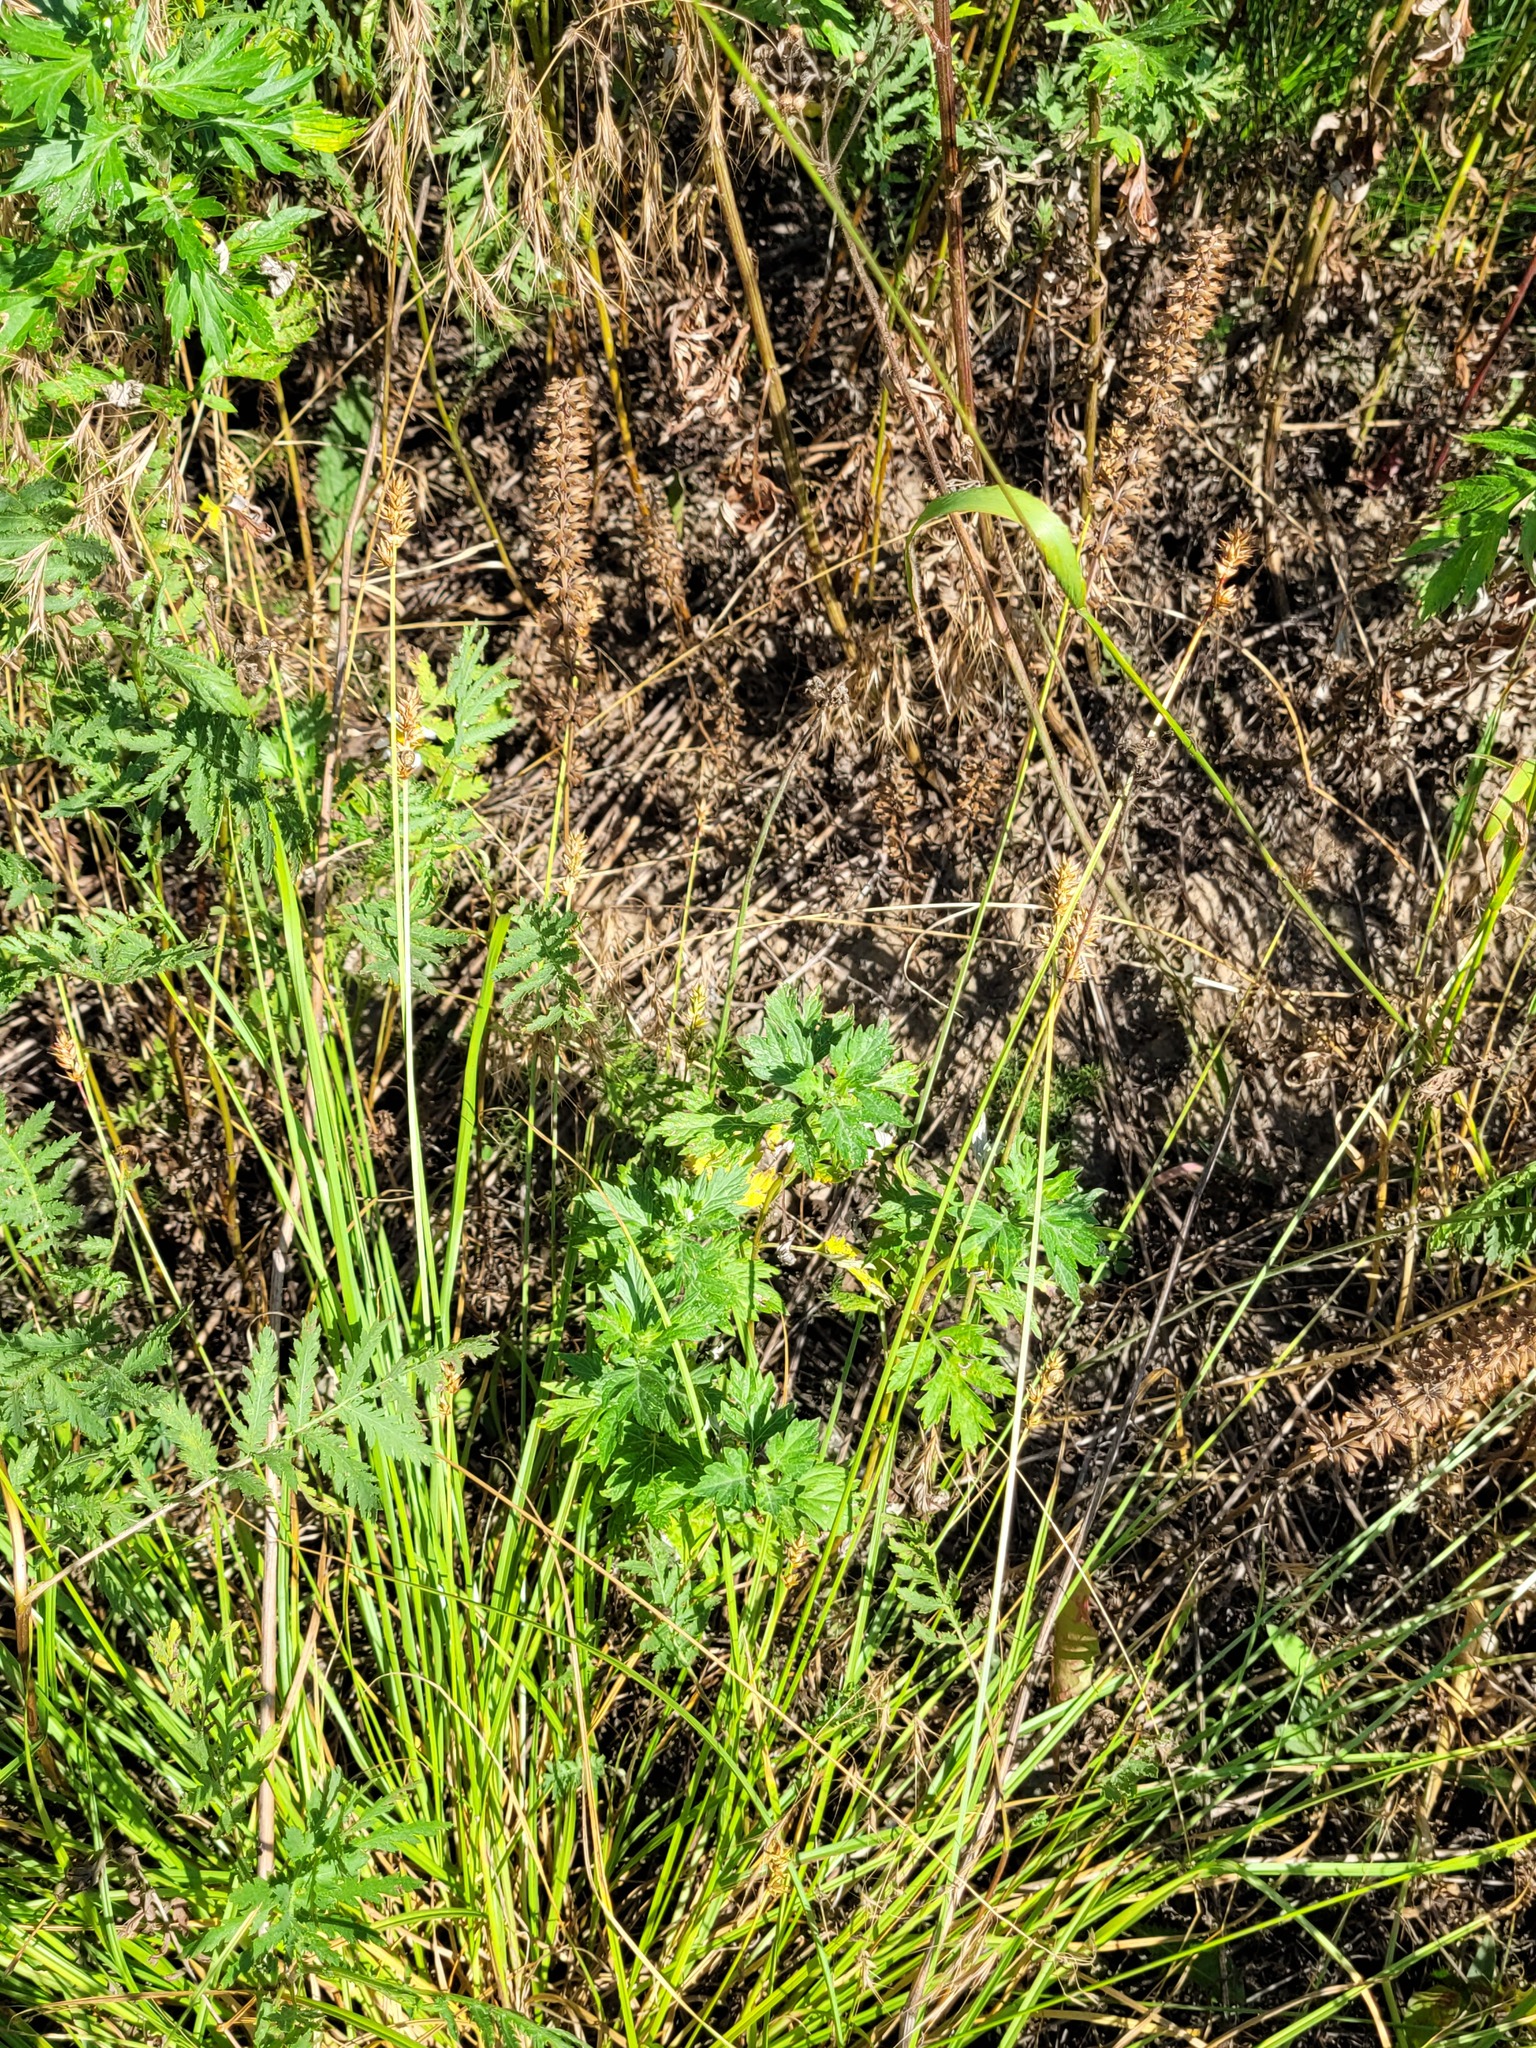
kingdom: Plantae
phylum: Tracheophyta
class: Magnoliopsida
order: Asterales
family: Asteraceae
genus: Artemisia
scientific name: Artemisia vulgaris
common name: Mugwort
